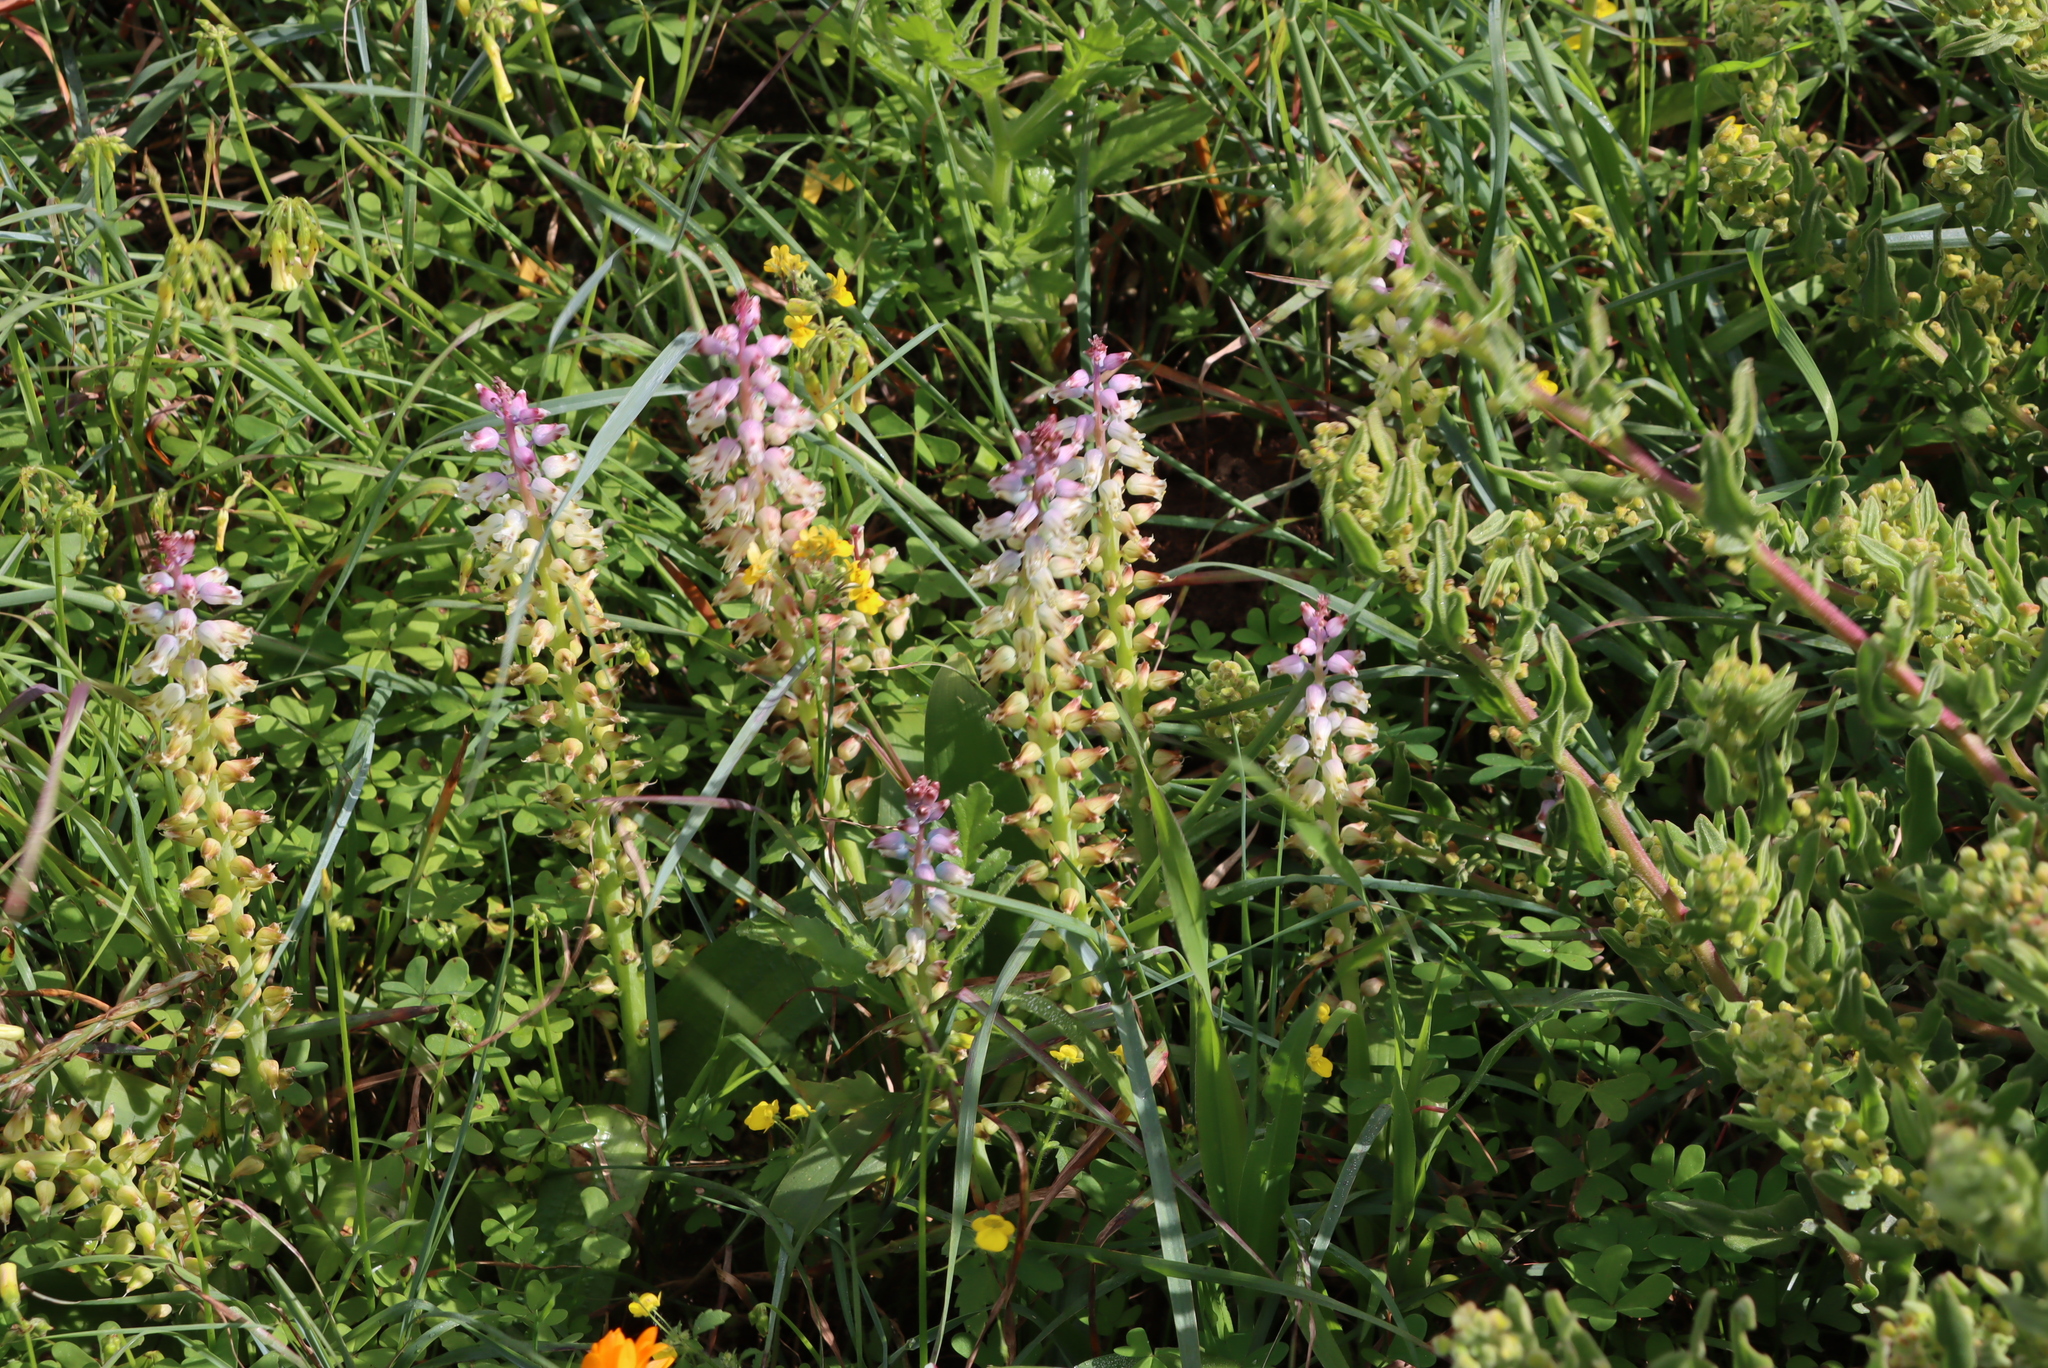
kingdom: Plantae
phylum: Tracheophyta
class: Liliopsida
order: Asparagales
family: Asparagaceae
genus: Lachenalia
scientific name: Lachenalia pallida
